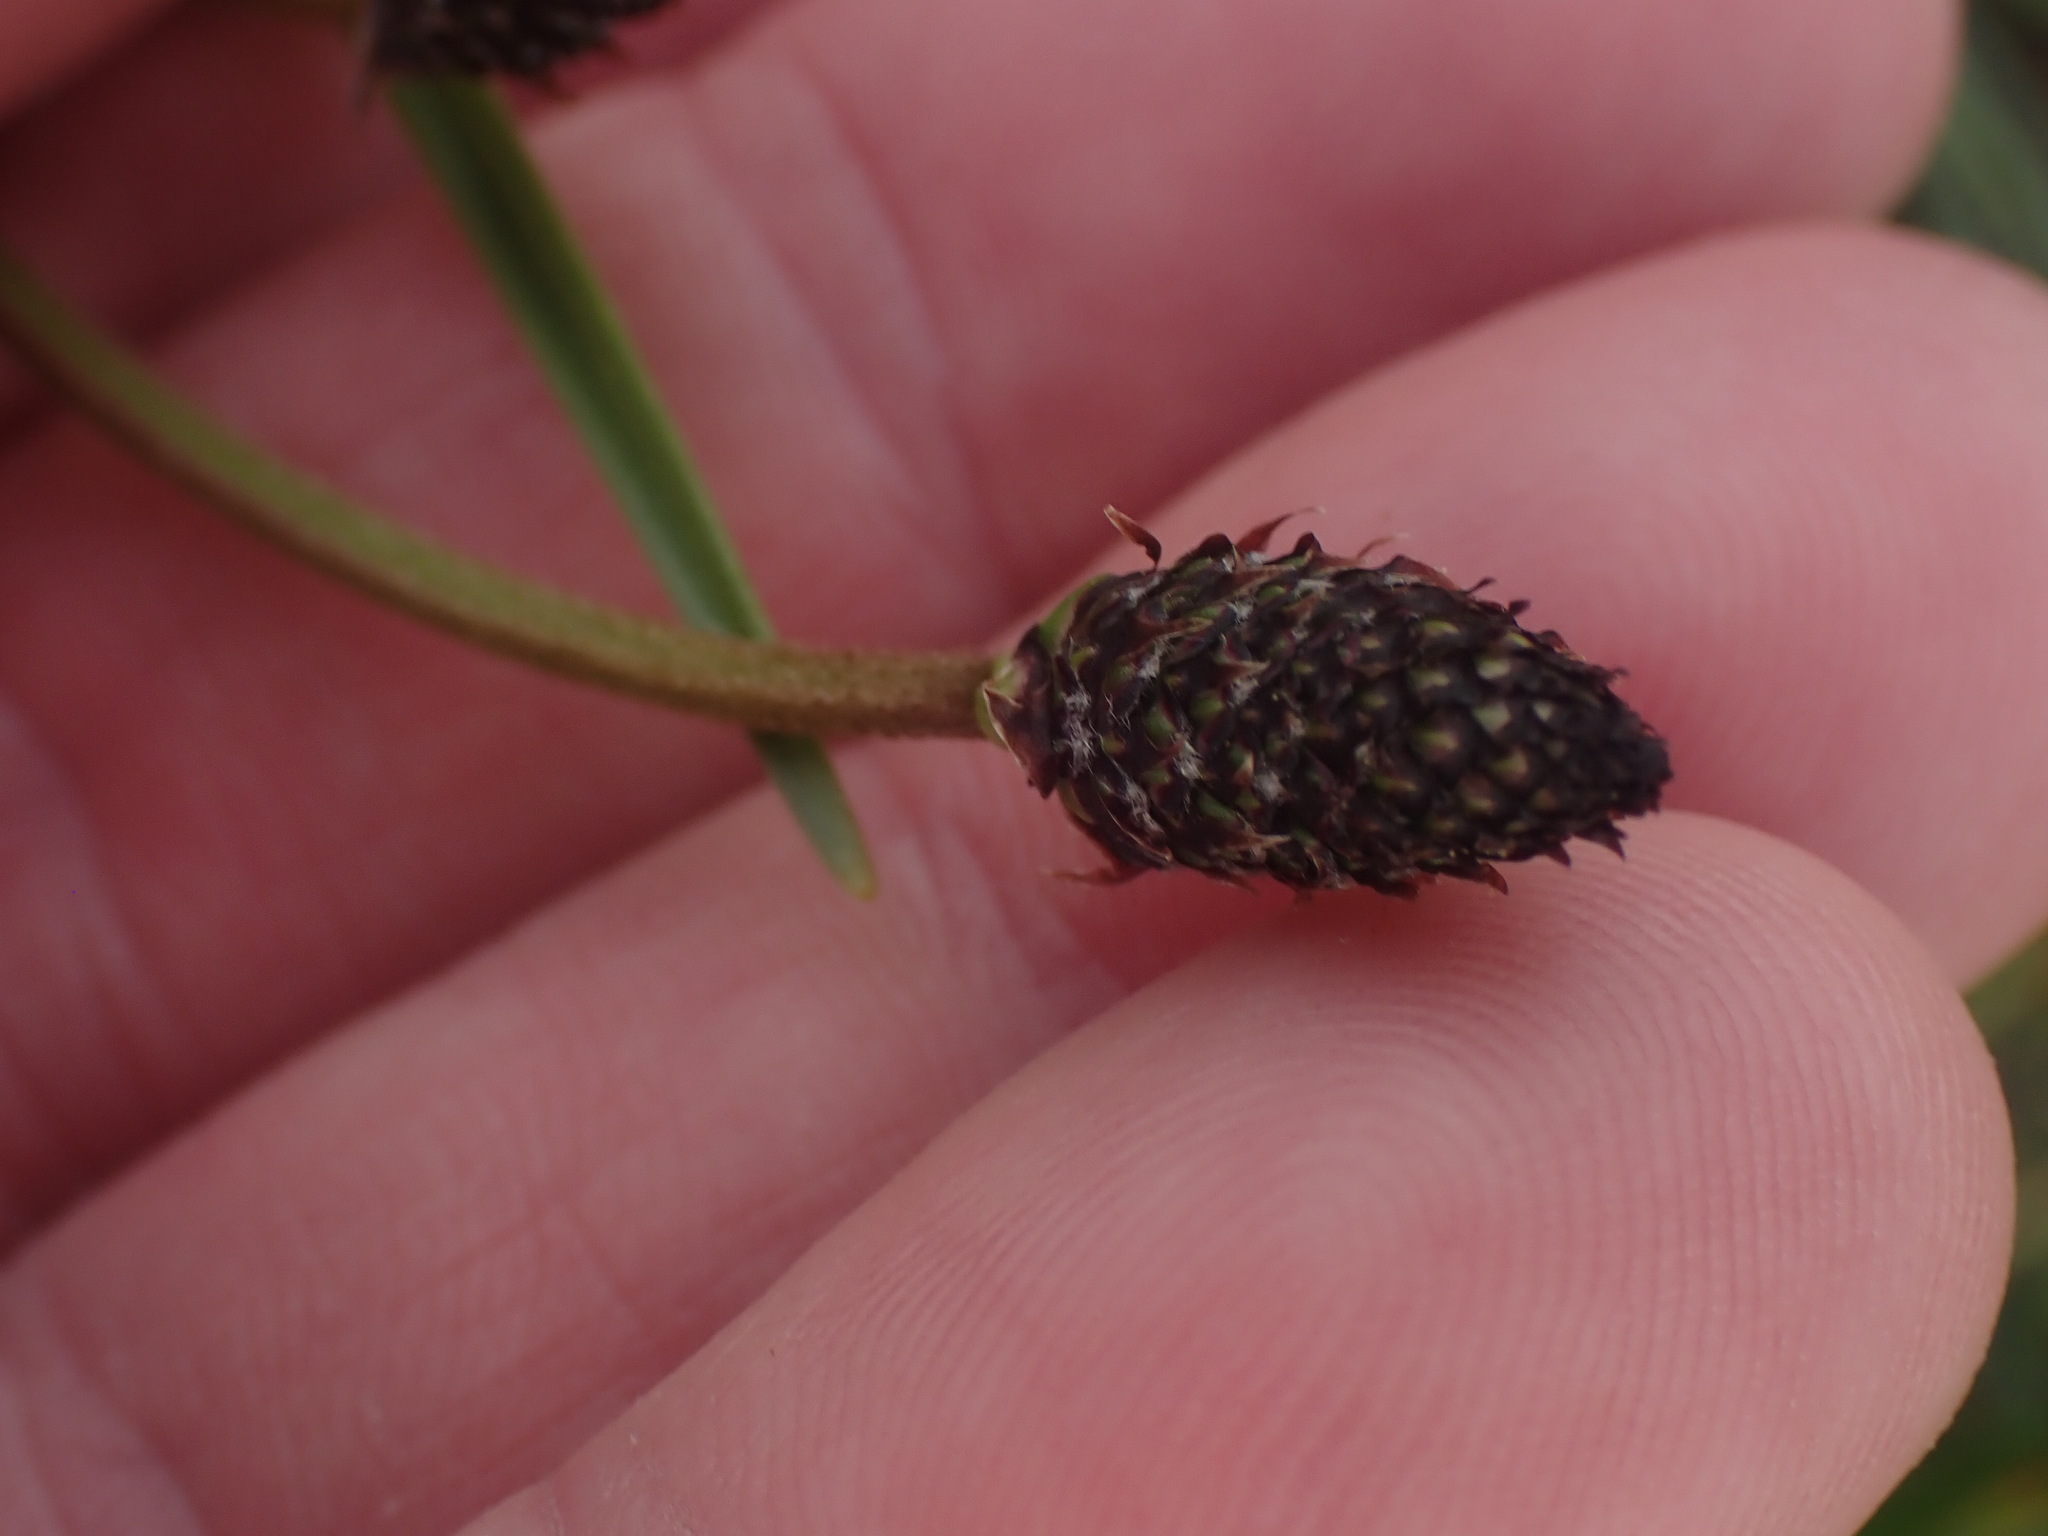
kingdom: Plantae
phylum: Tracheophyta
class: Magnoliopsida
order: Lamiales
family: Plantaginaceae
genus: Plantago
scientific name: Plantago lanceolata
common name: Ribwort plantain
